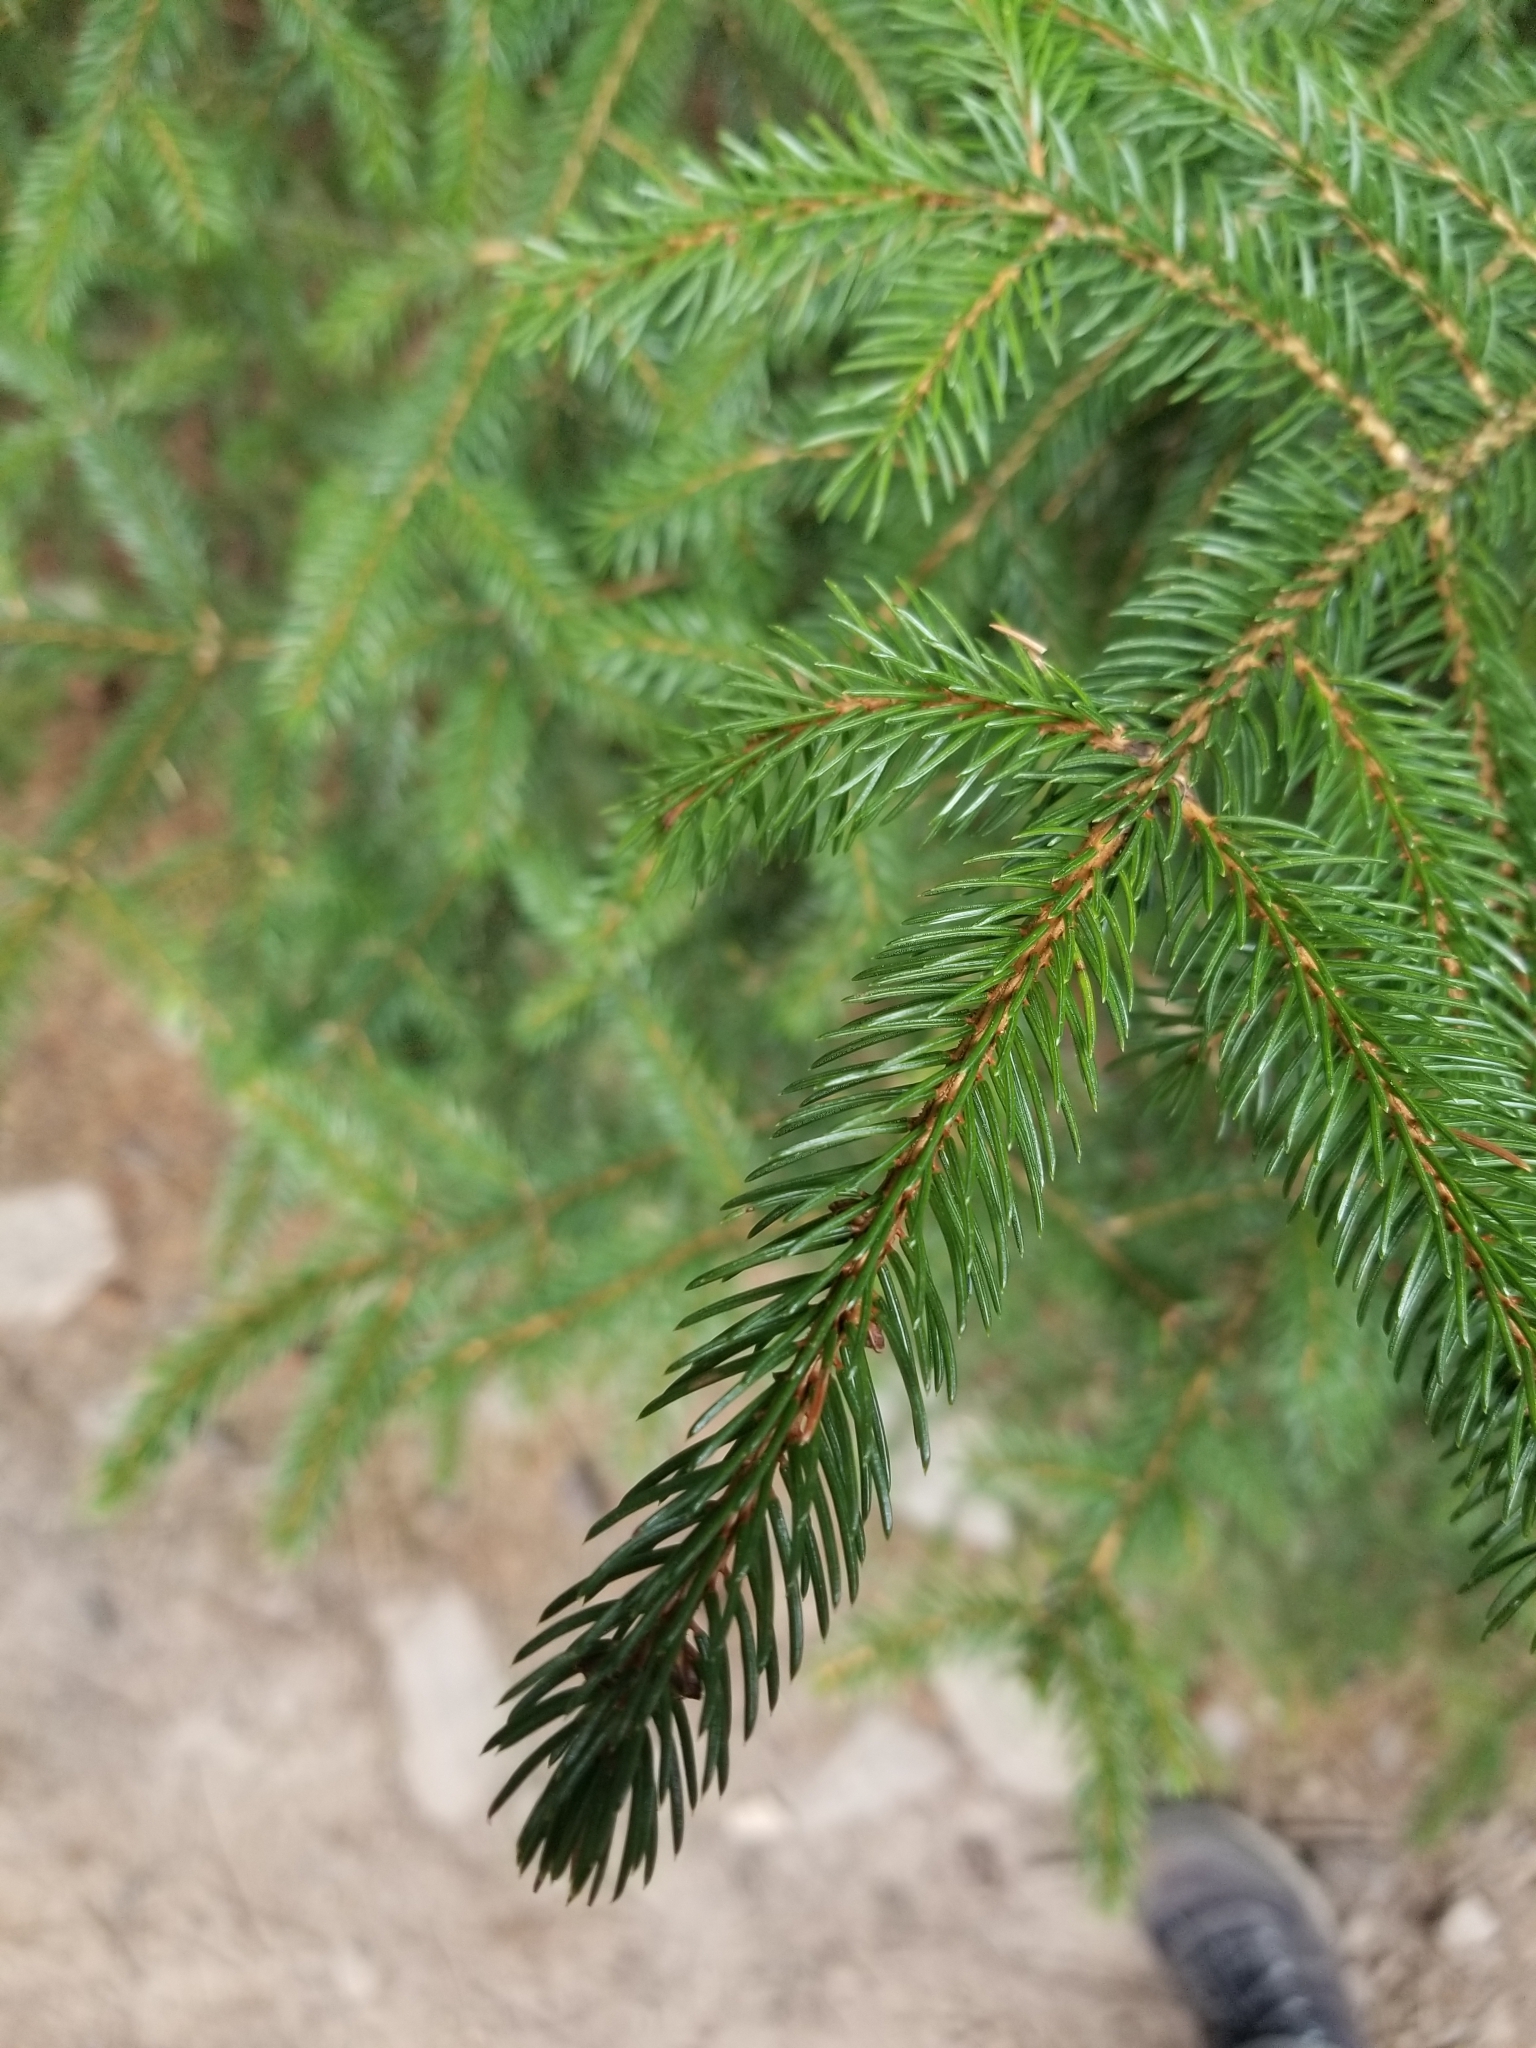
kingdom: Plantae
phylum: Tracheophyta
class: Pinopsida
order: Pinales
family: Pinaceae
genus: Picea
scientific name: Picea rubens
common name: Red spruce
